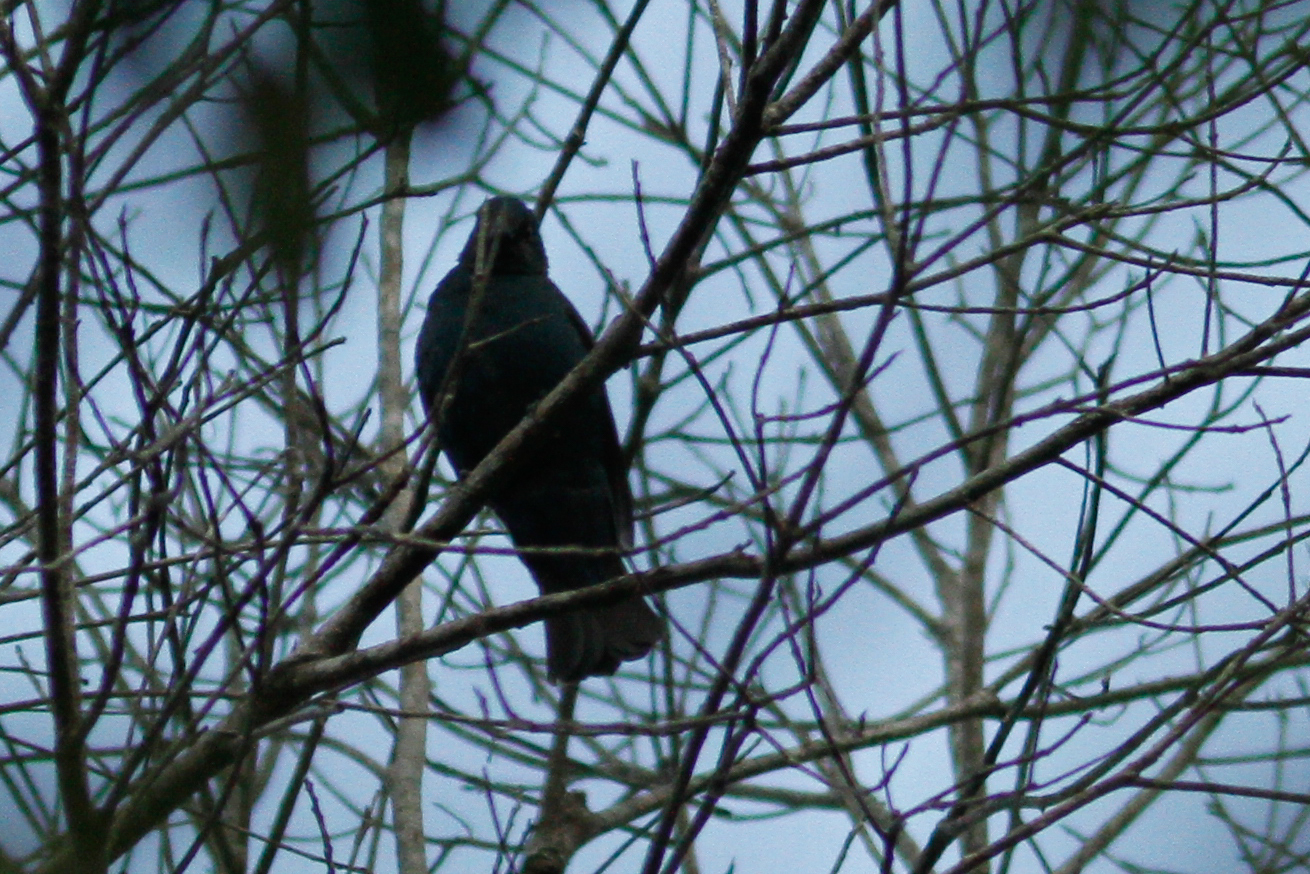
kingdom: Animalia
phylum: Chordata
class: Aves
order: Passeriformes
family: Irenidae
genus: Irena
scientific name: Irena puella
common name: Asian fairy-bluebird
